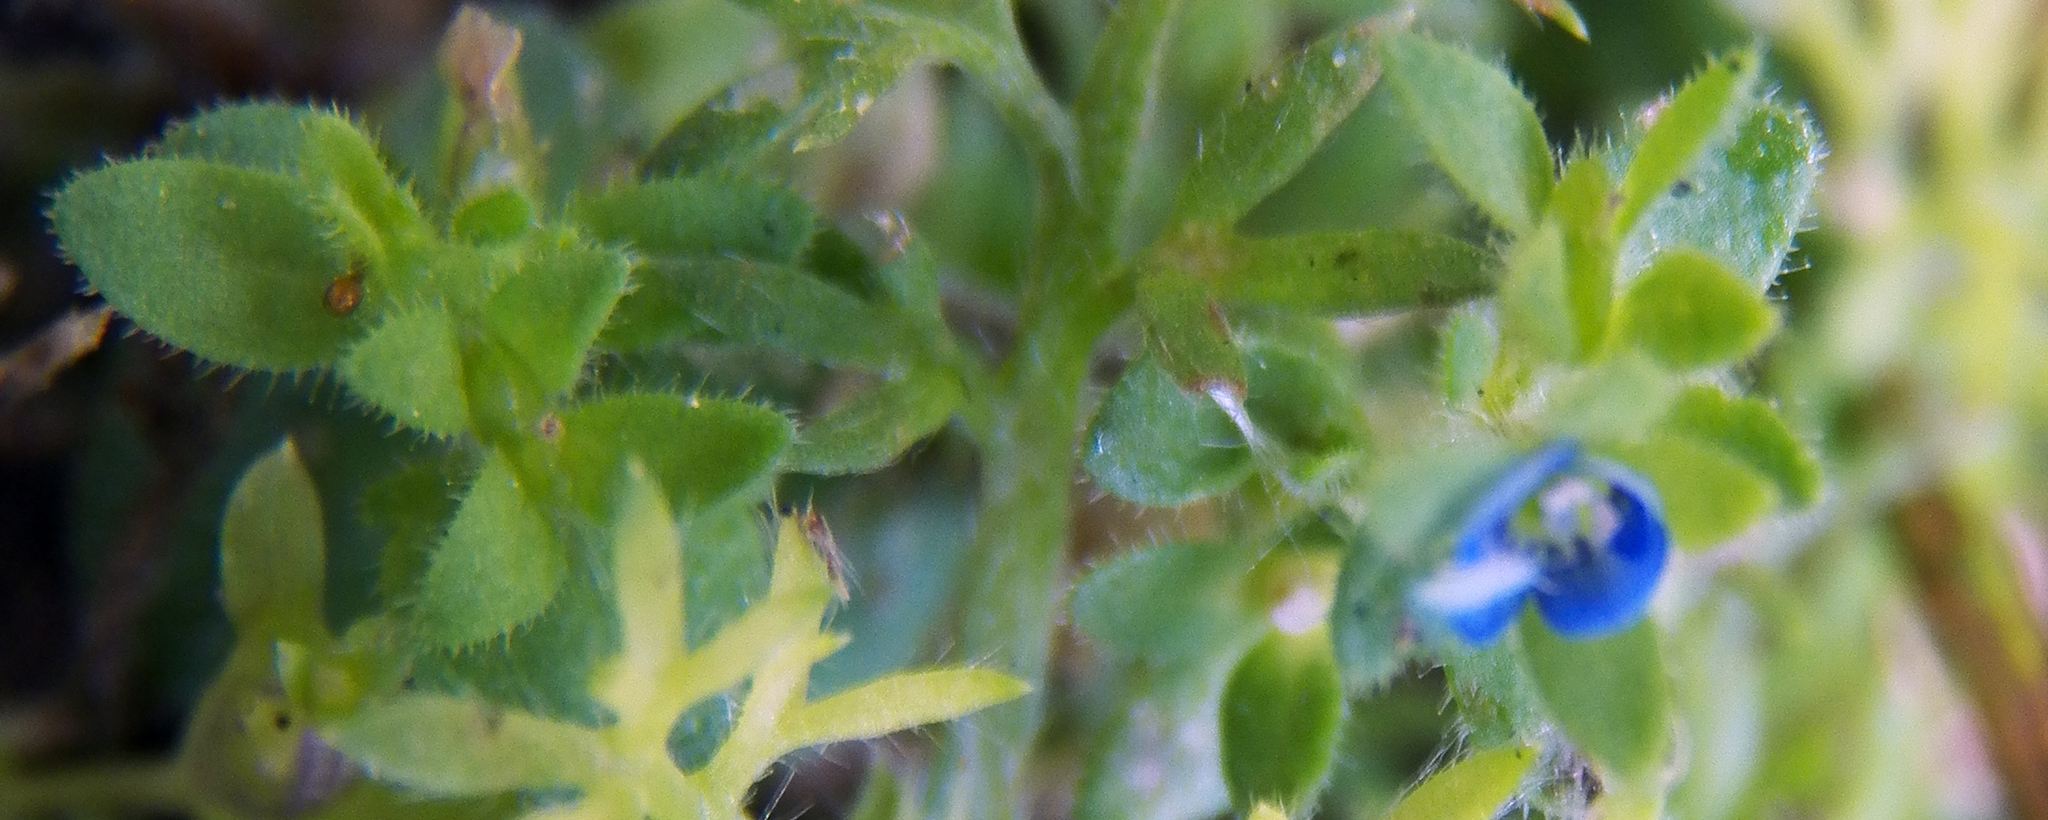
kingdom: Plantae
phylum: Tracheophyta
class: Magnoliopsida
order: Lamiales
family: Plantaginaceae
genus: Veronica
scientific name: Veronica arvensis
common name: Corn speedwell
